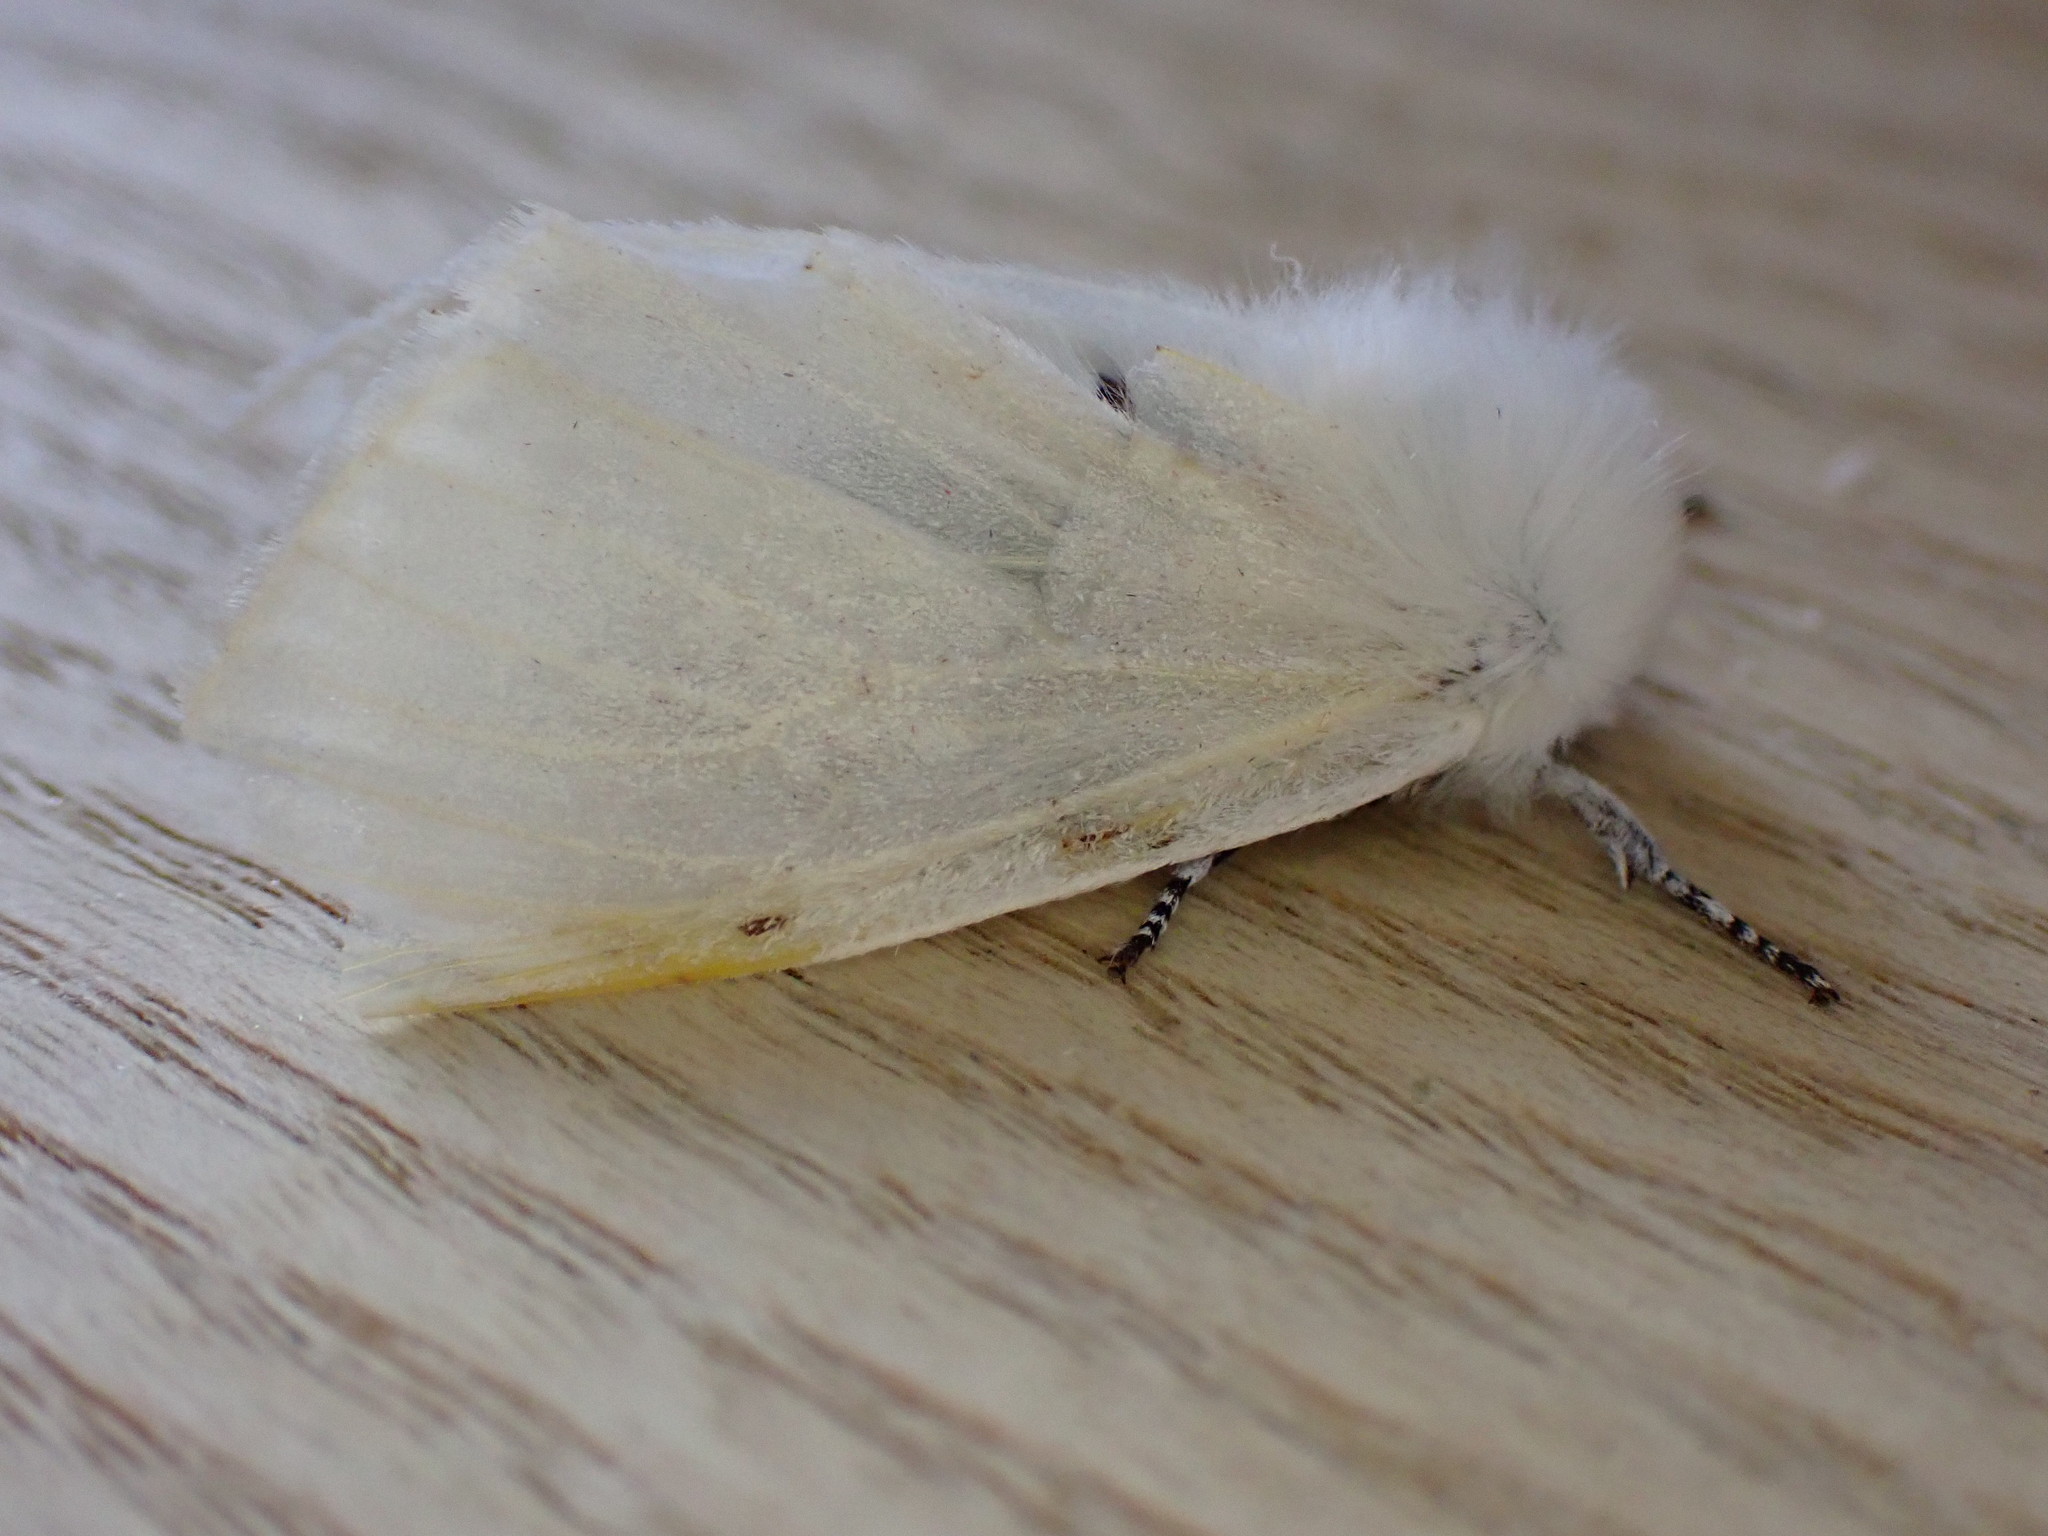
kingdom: Animalia
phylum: Arthropoda
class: Insecta
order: Lepidoptera
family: Erebidae
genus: Leucoma
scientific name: Leucoma salicis
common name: White satin moth
